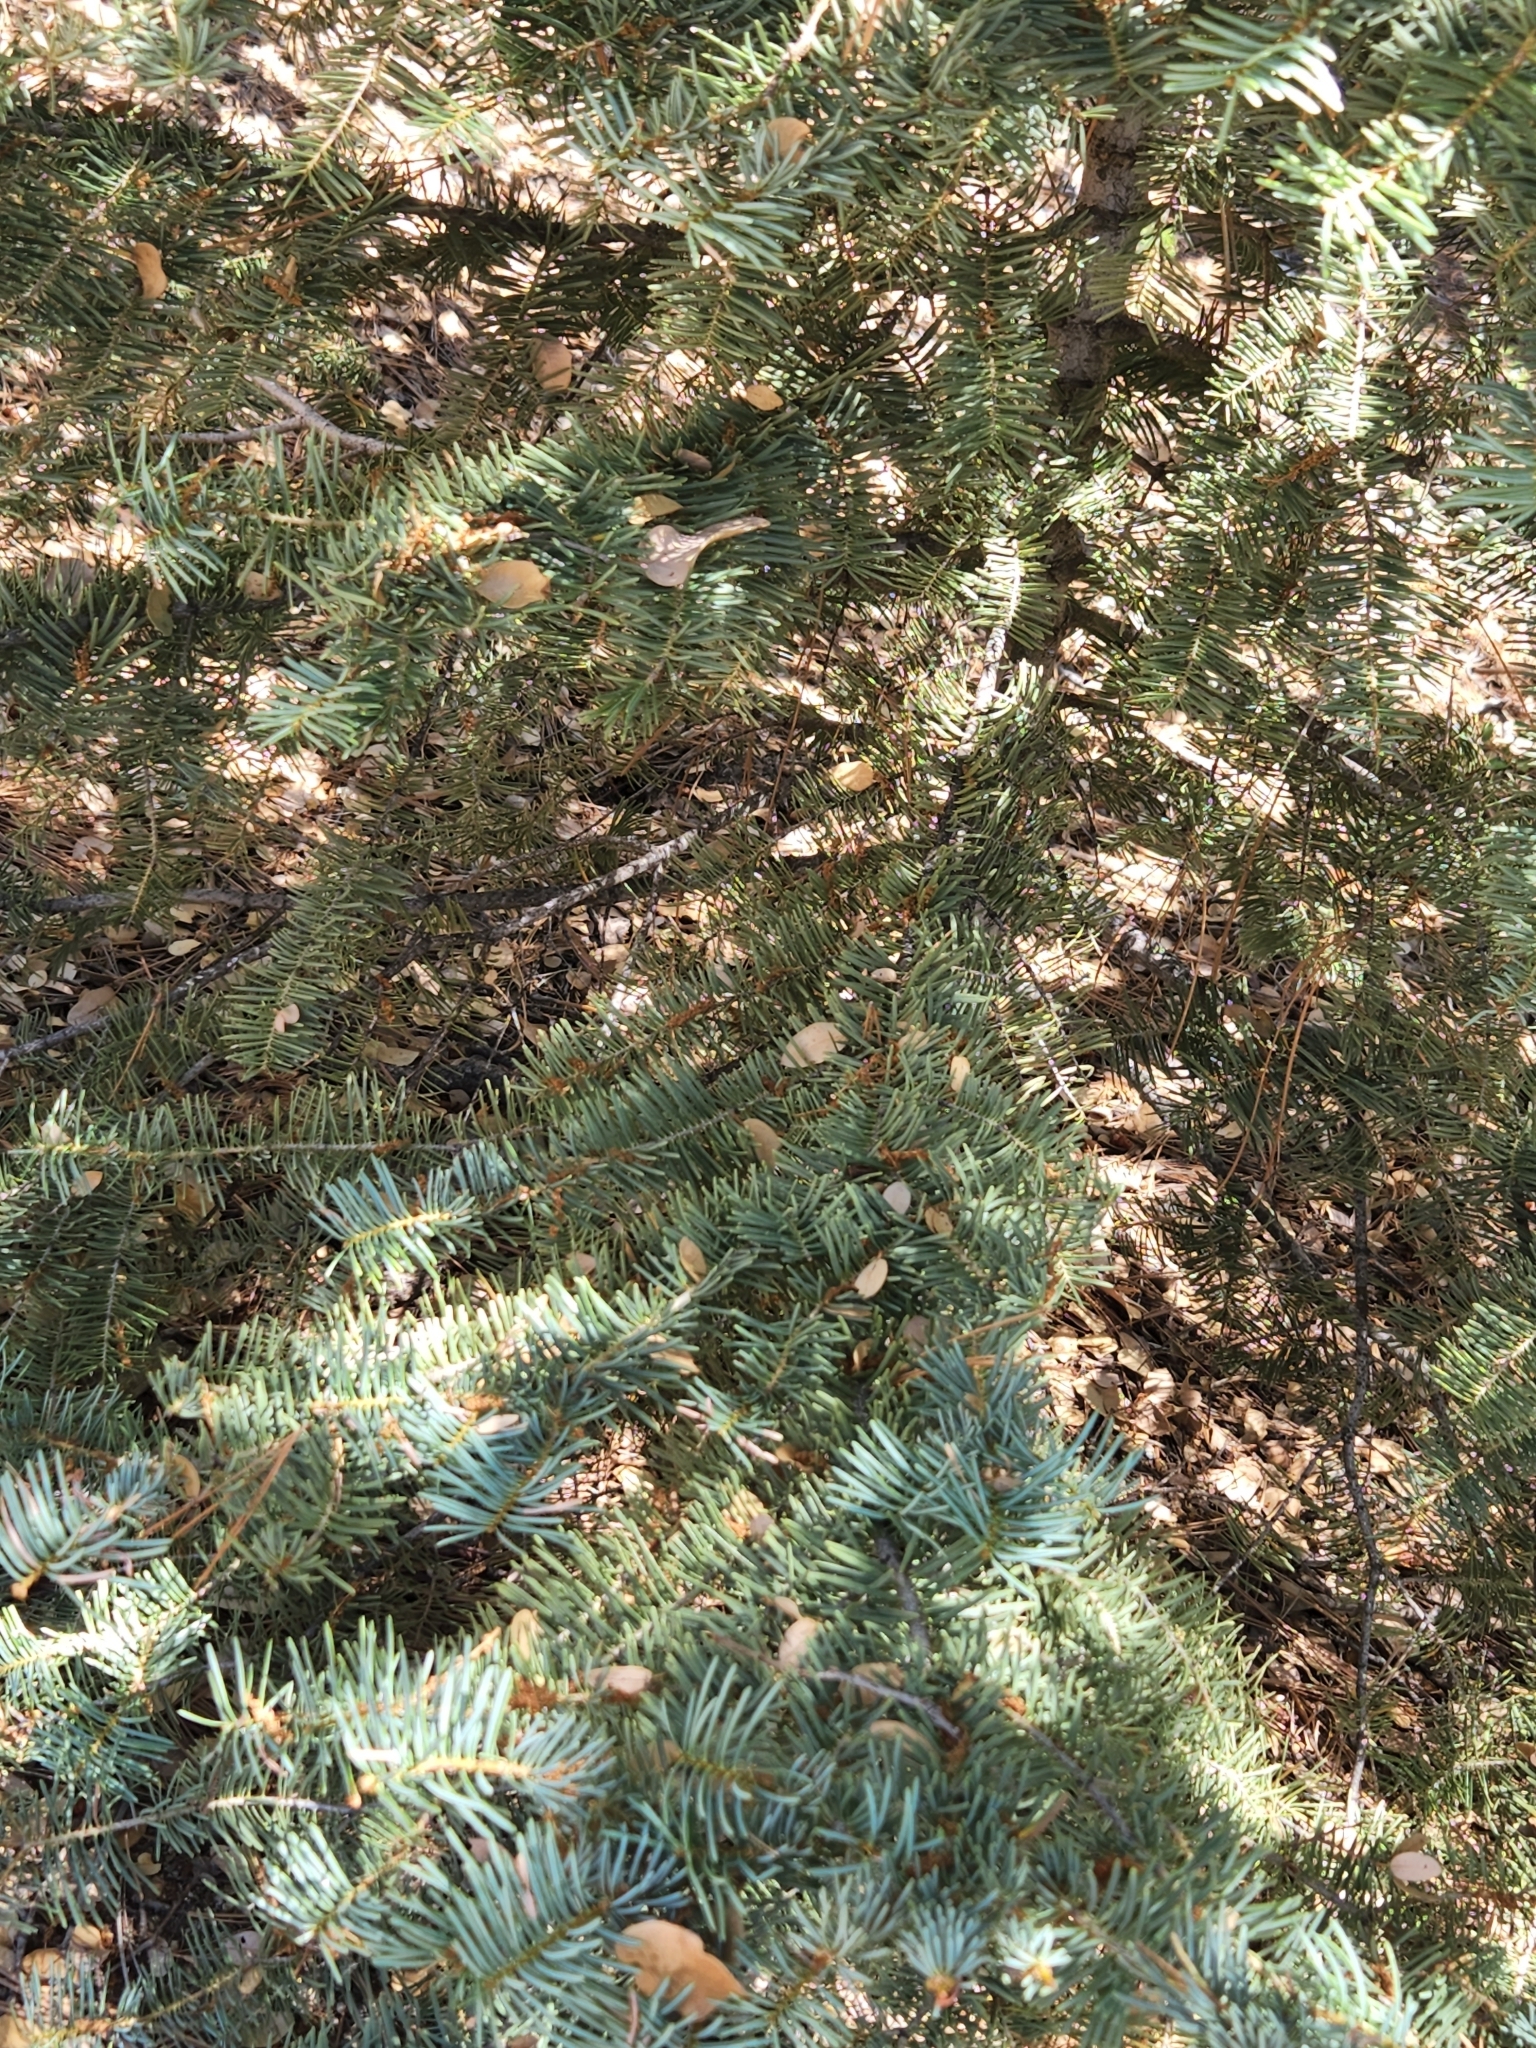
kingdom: Plantae
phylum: Tracheophyta
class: Pinopsida
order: Pinales
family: Pinaceae
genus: Abies
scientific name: Abies concolor
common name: Colorado fir
